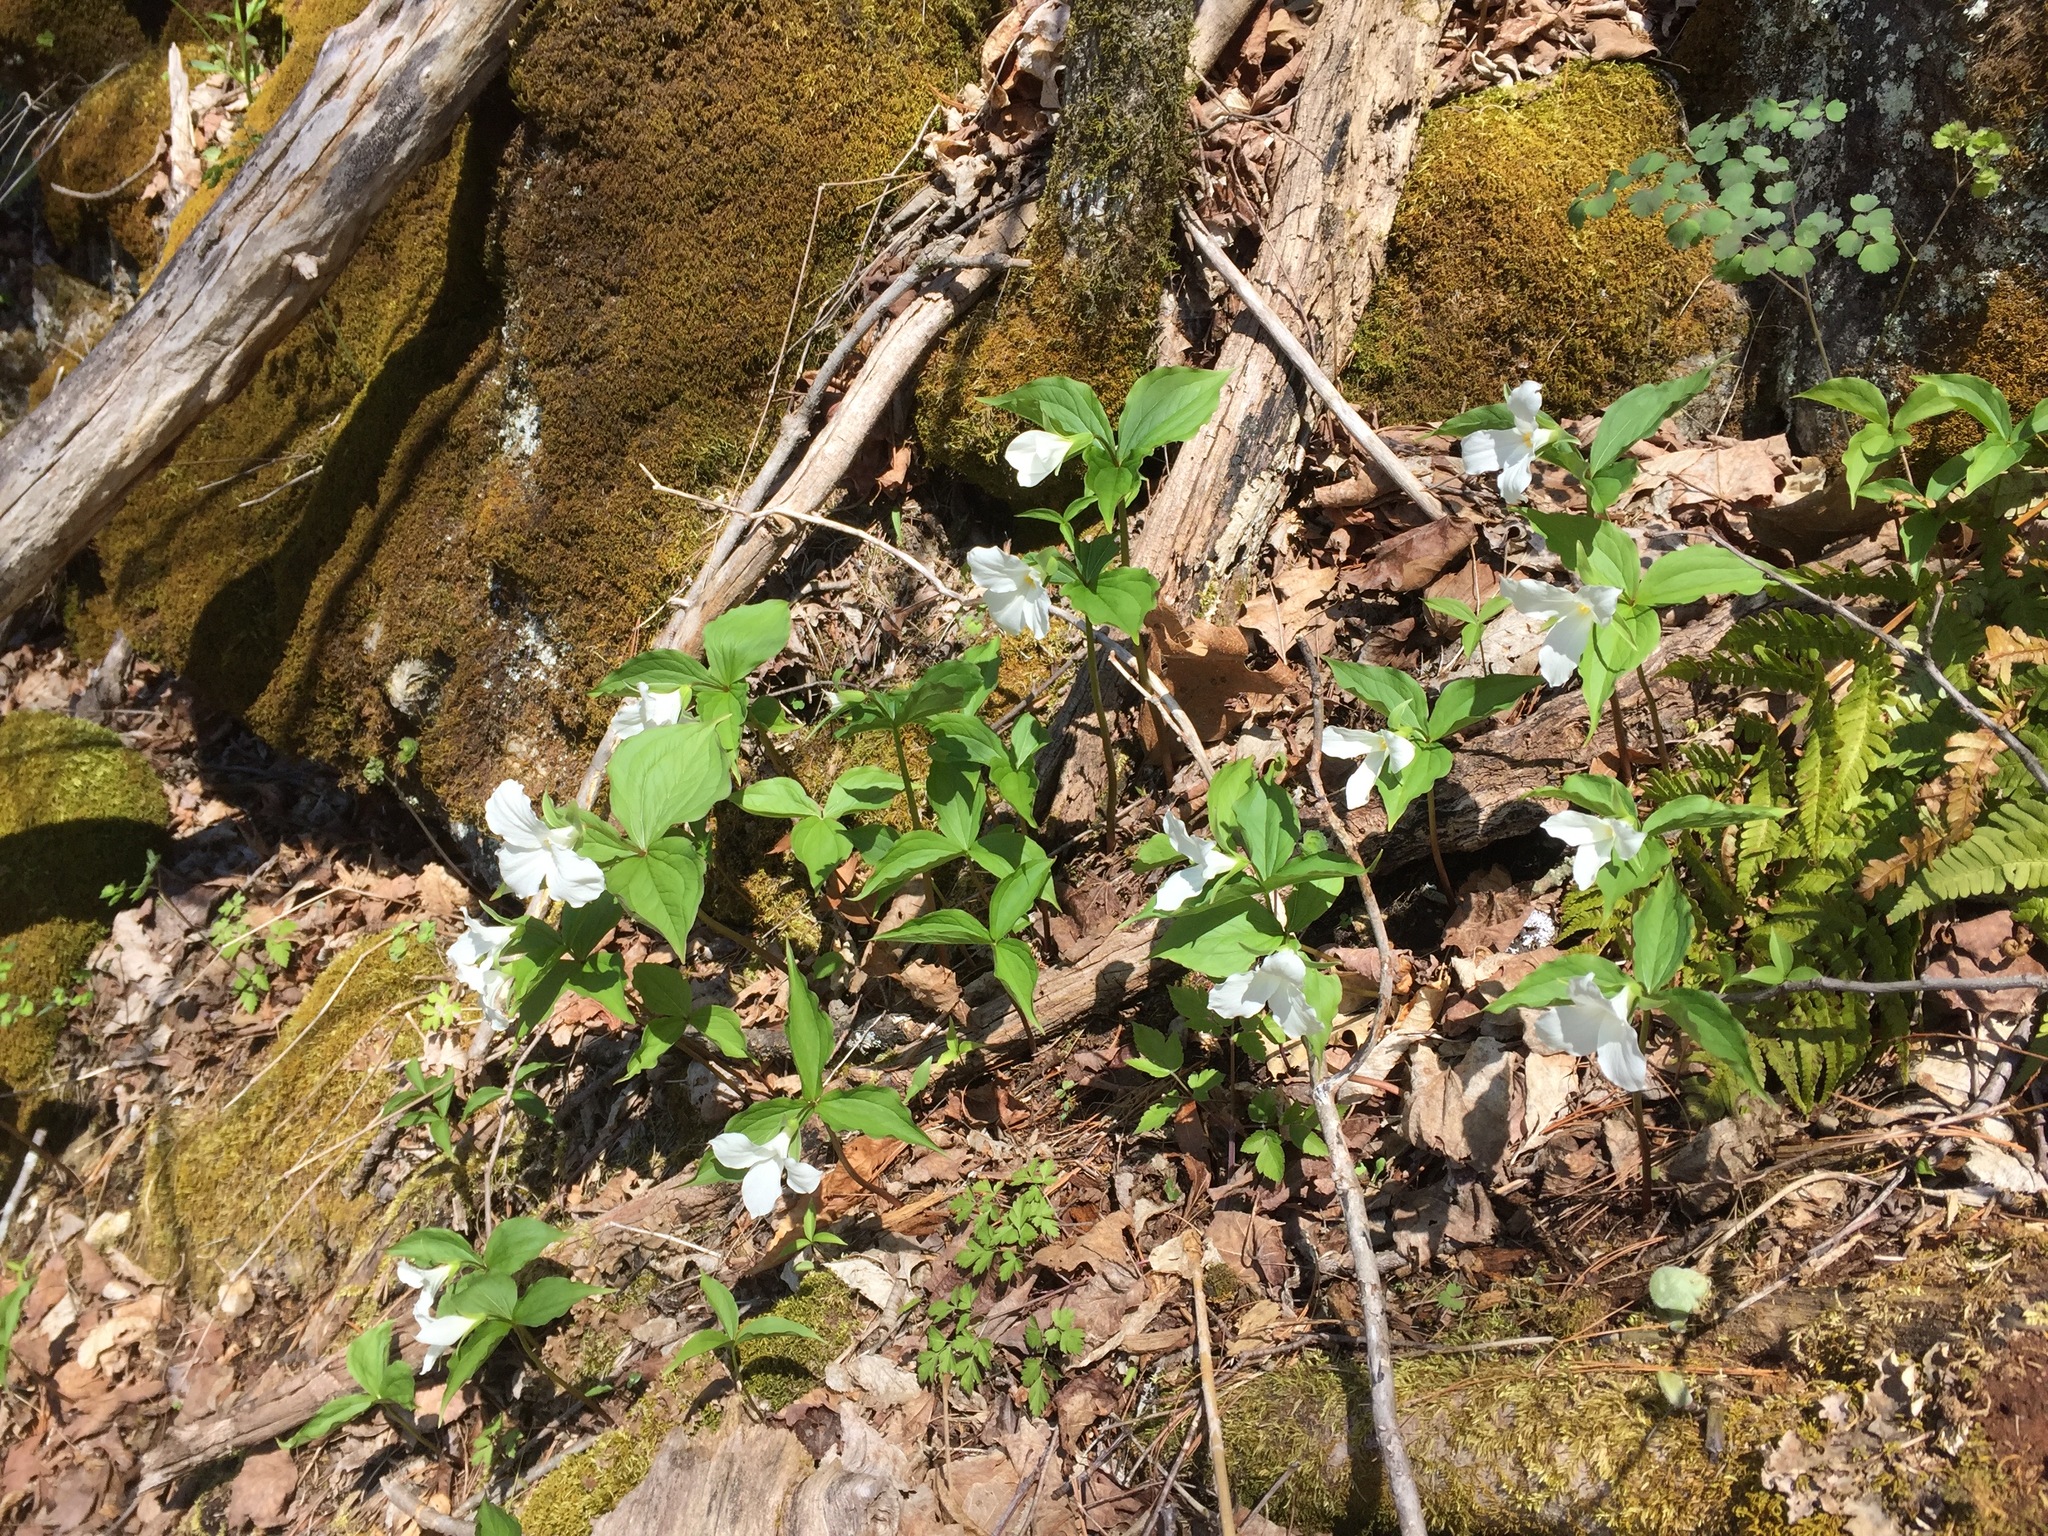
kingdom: Plantae
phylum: Tracheophyta
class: Liliopsida
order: Liliales
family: Melanthiaceae
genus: Trillium
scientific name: Trillium grandiflorum
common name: Great white trillium
